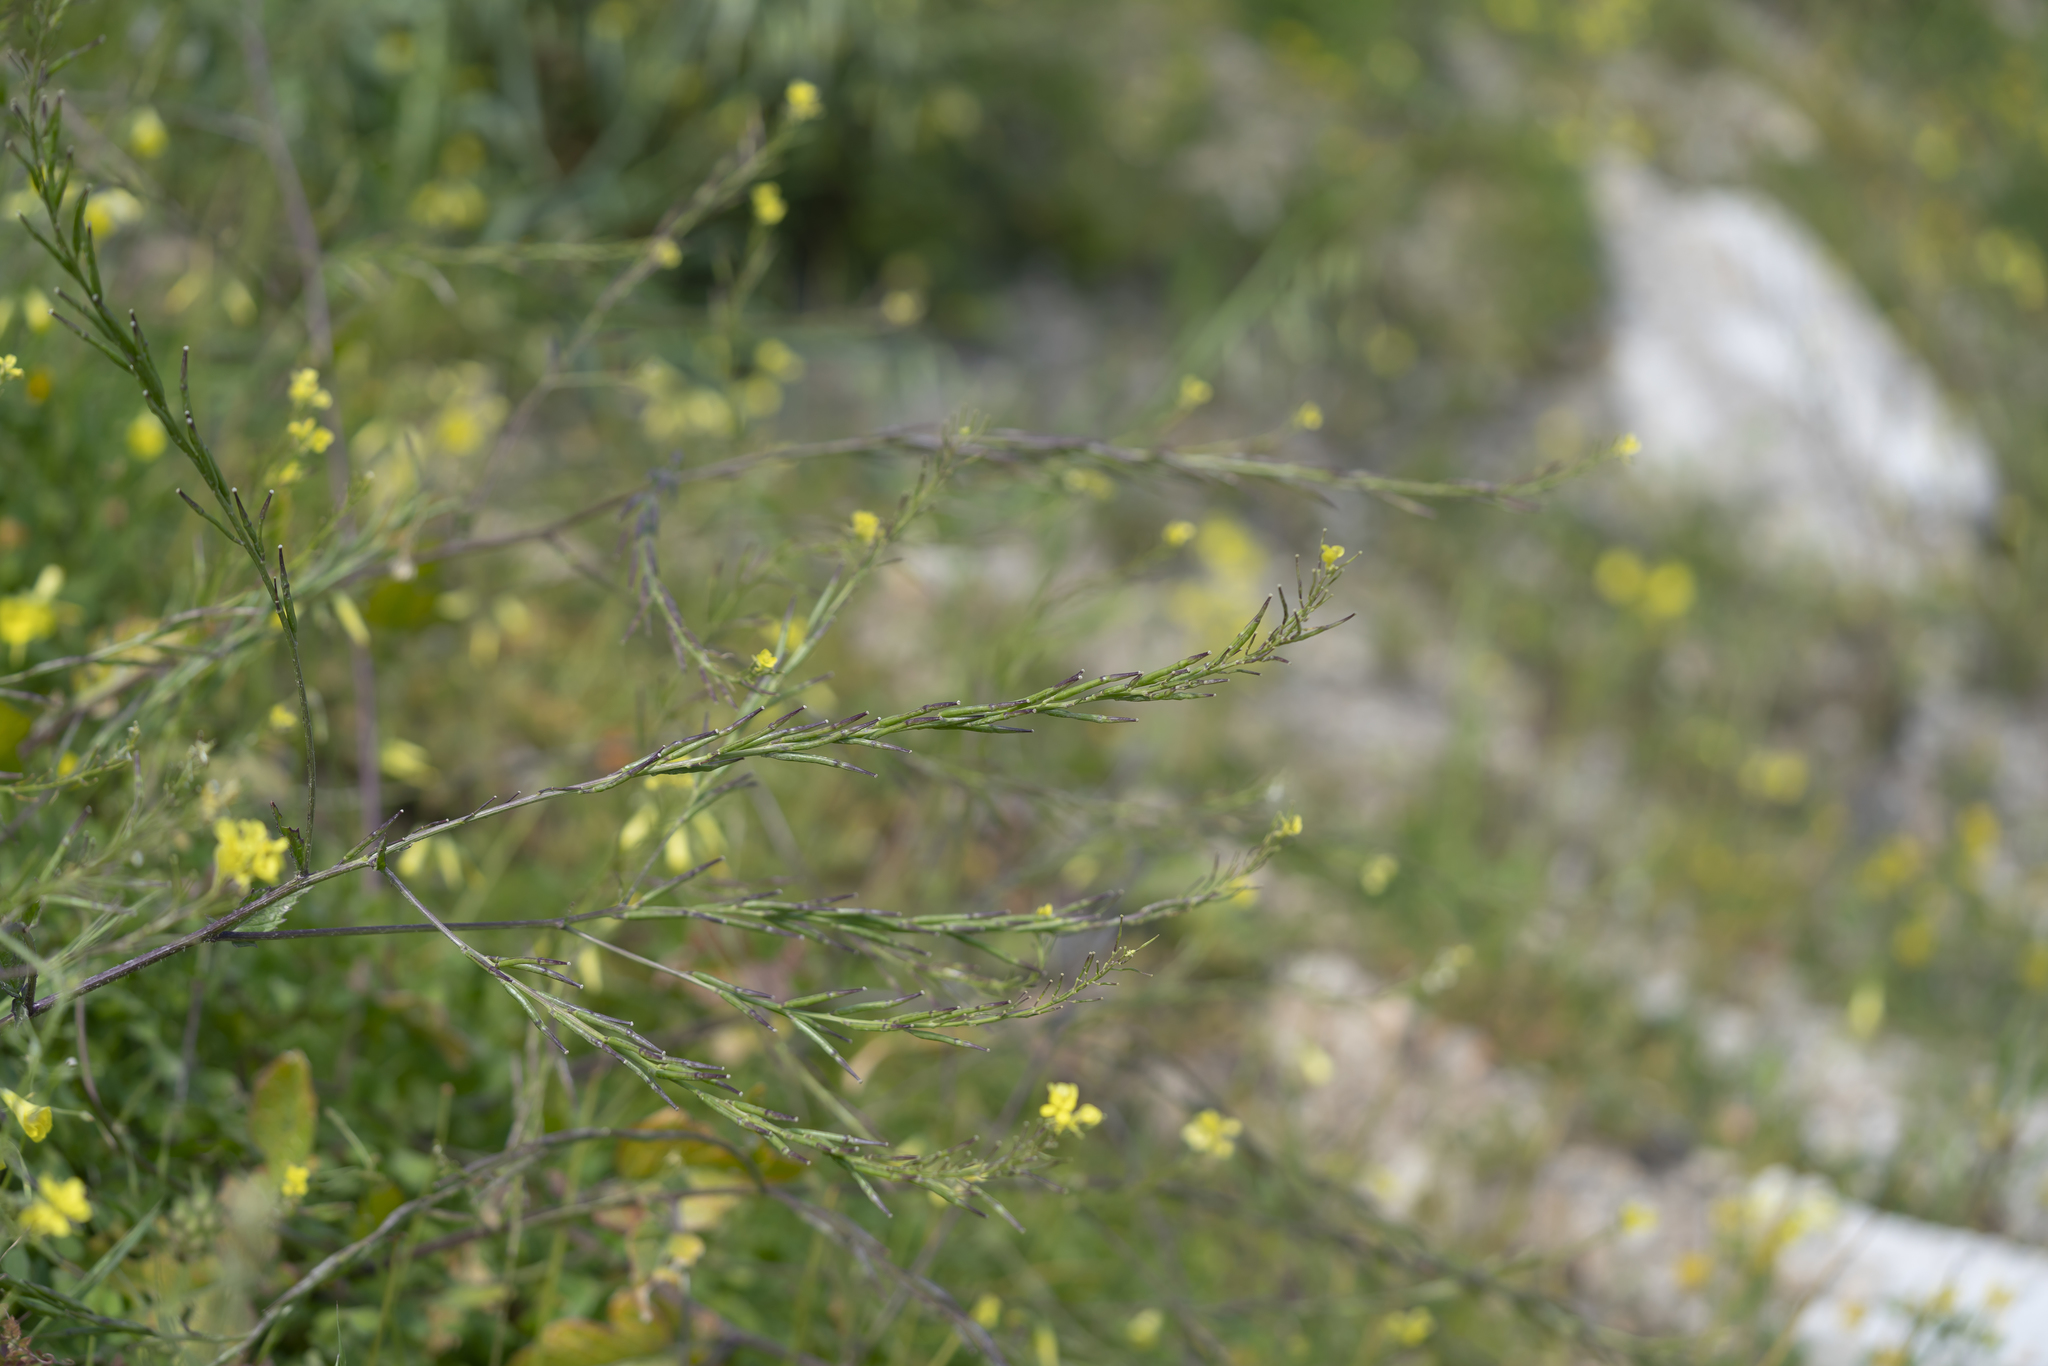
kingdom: Plantae
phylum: Tracheophyta
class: Magnoliopsida
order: Brassicales
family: Brassicaceae
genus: Hirschfeldia
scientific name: Hirschfeldia incana
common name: Hoary mustard
